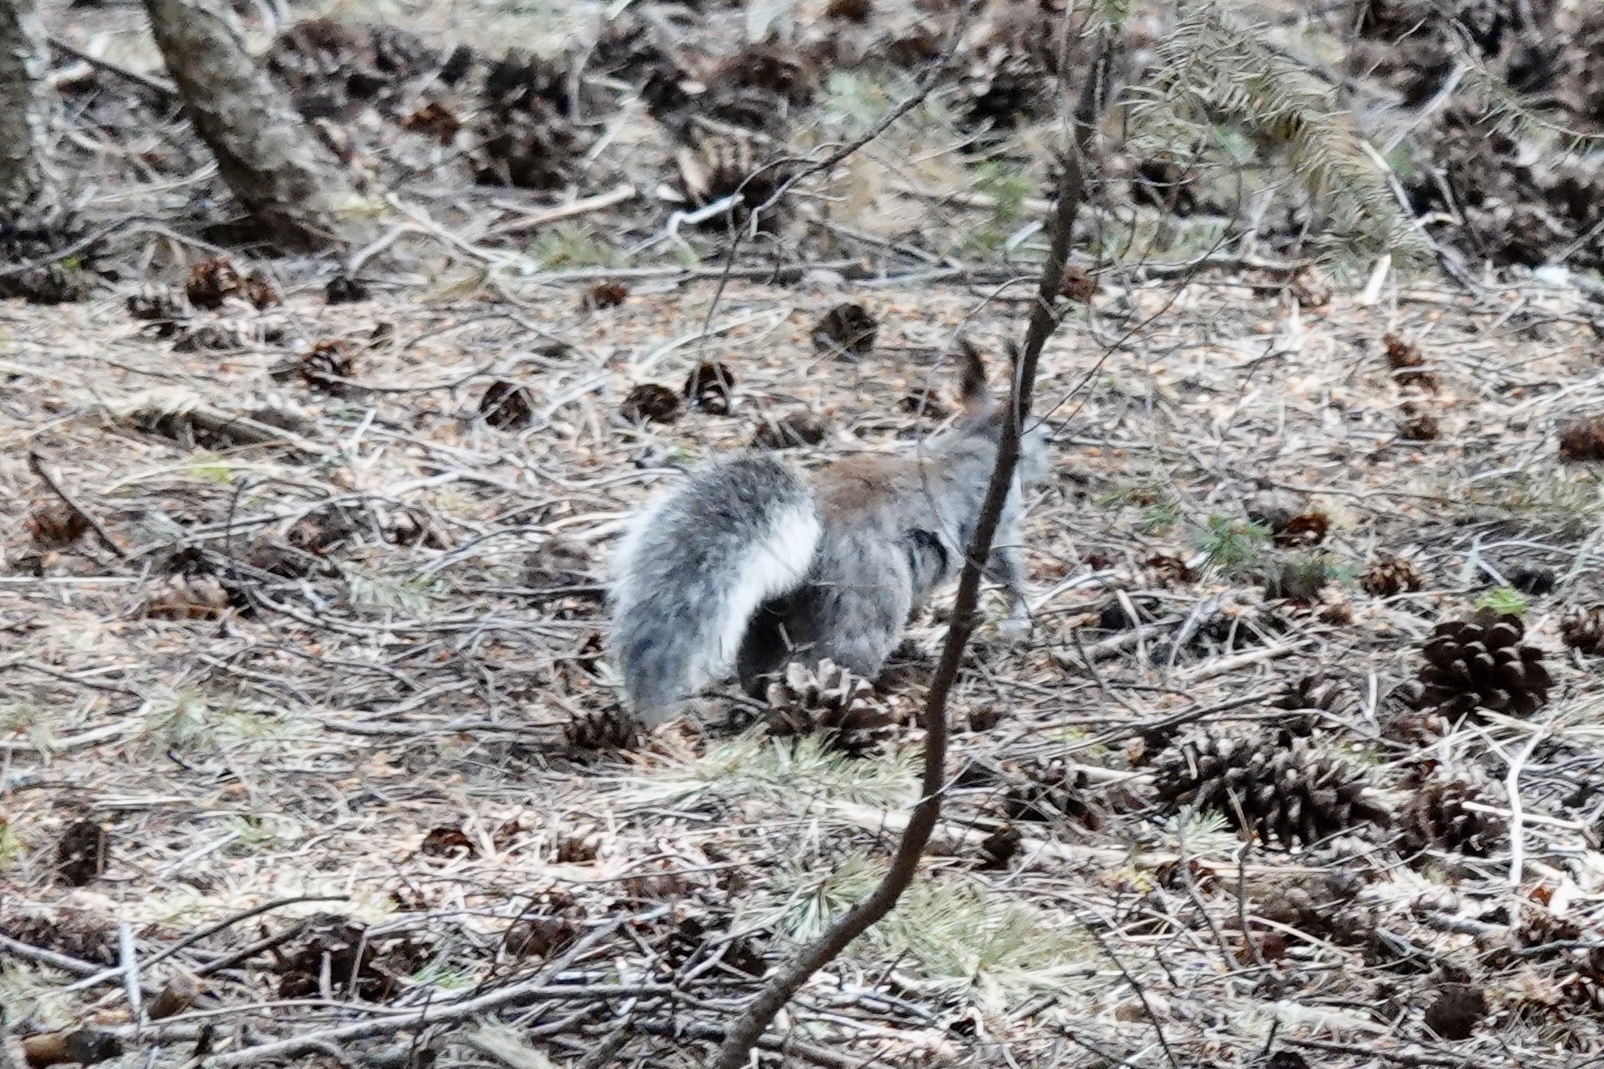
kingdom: Animalia
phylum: Chordata
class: Mammalia
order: Rodentia
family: Sciuridae
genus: Sciurus
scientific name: Sciurus aberti
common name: Abert's squirrel
